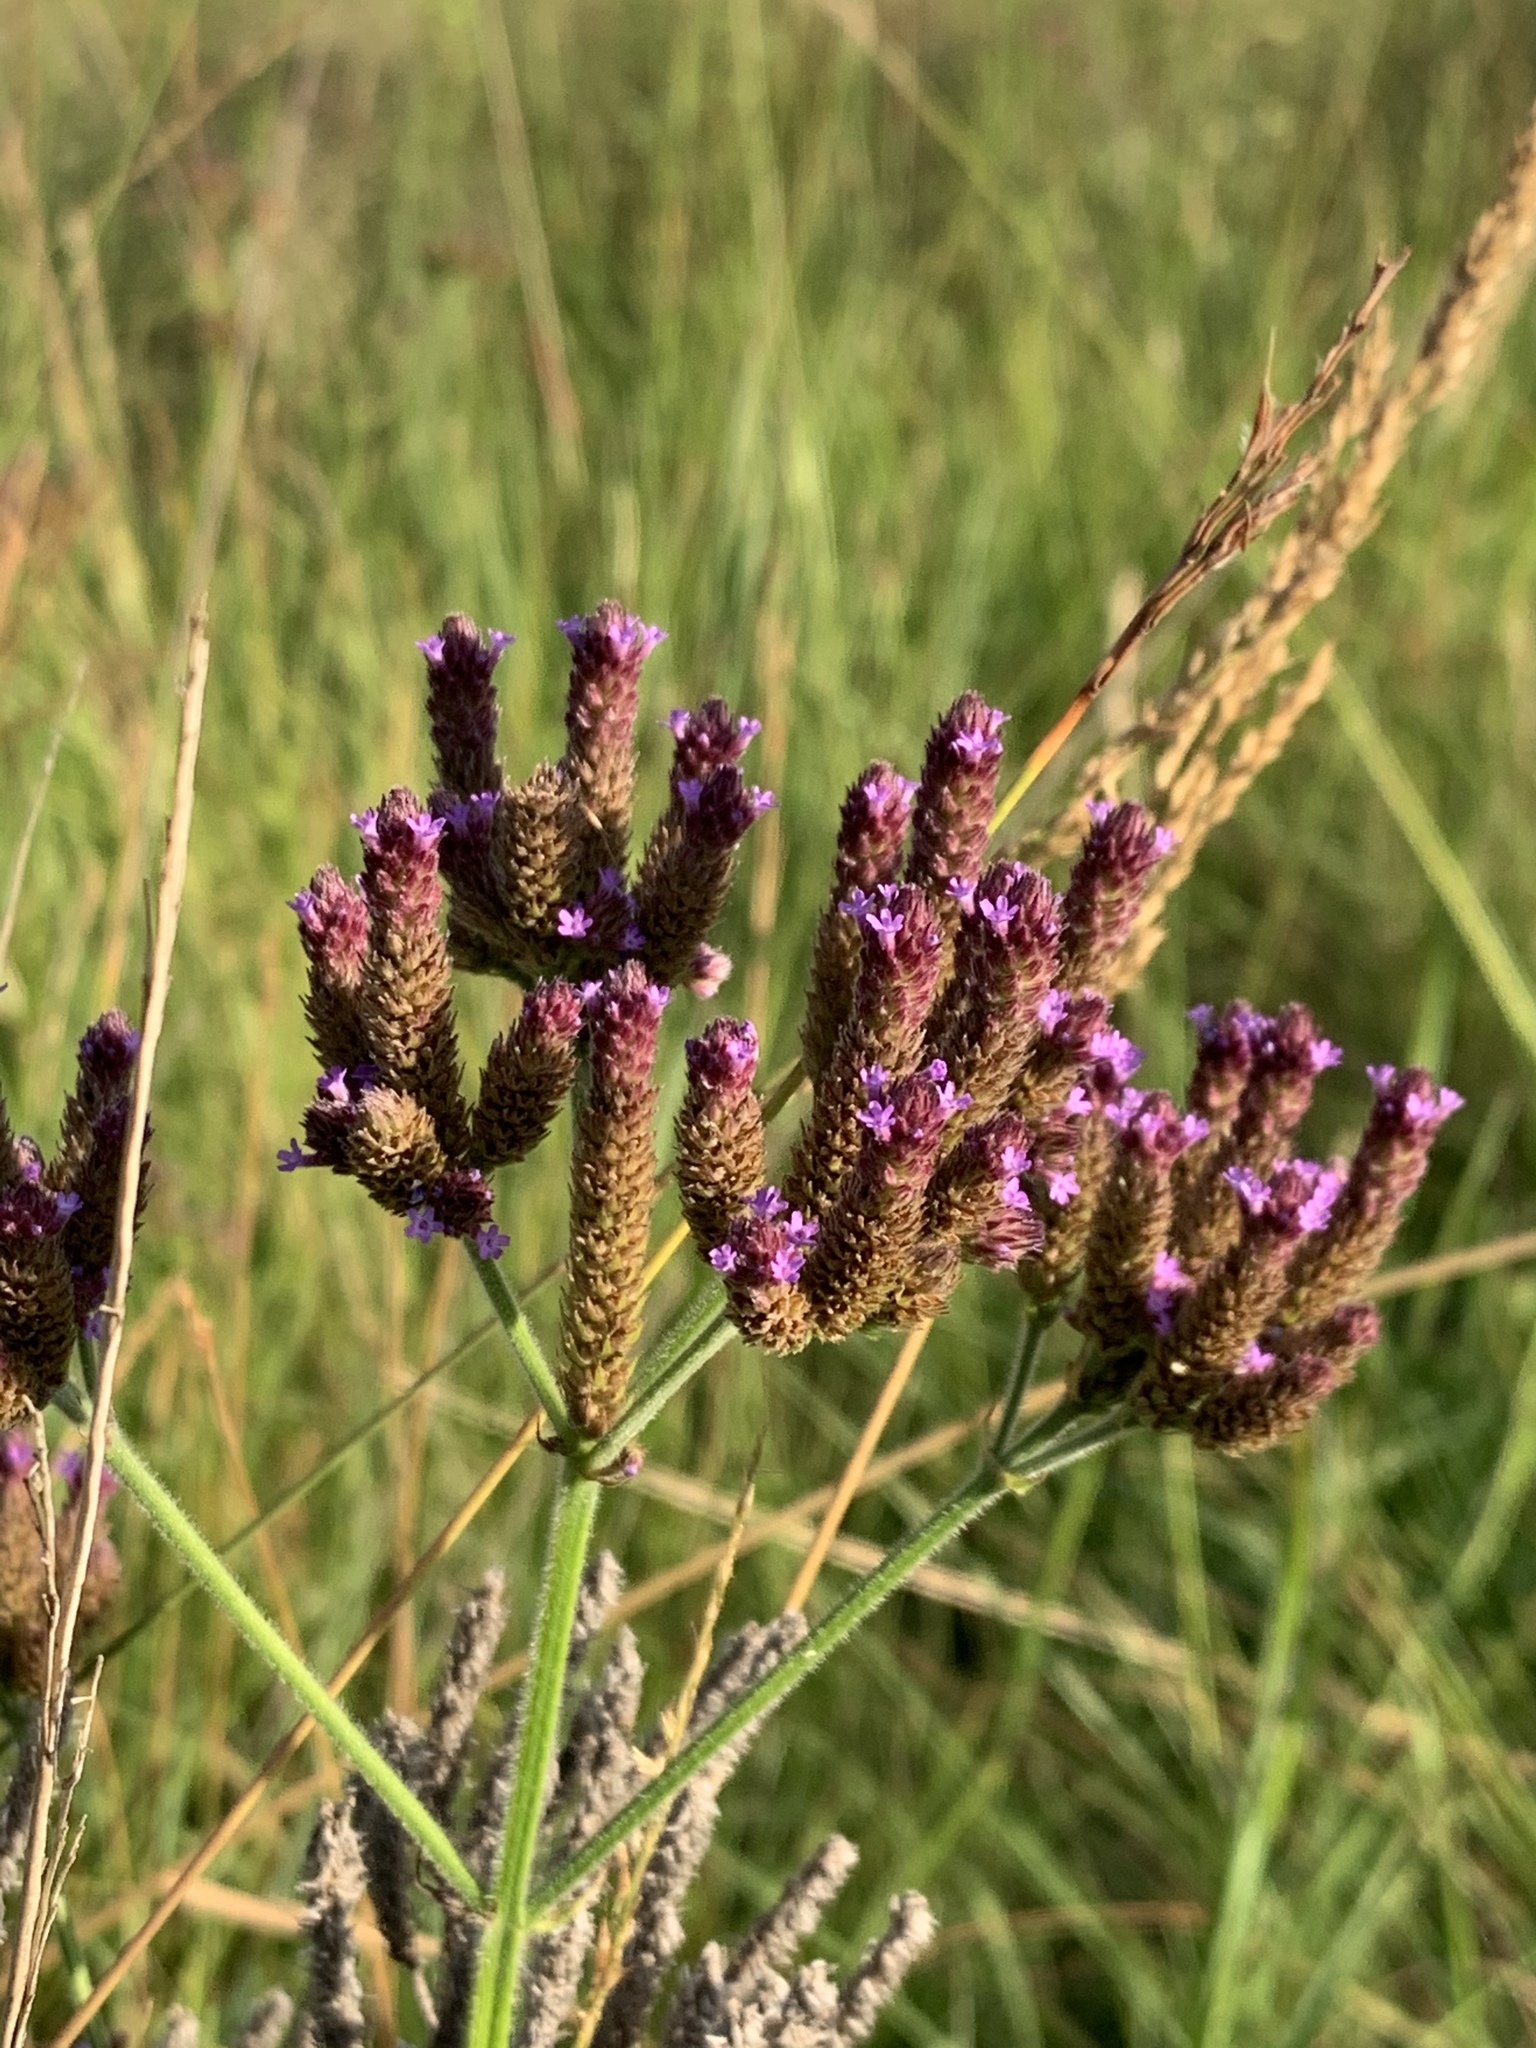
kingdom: Plantae
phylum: Tracheophyta
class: Magnoliopsida
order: Lamiales
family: Verbenaceae
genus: Verbena
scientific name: Verbena bonariensis
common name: Purpletop vervain
